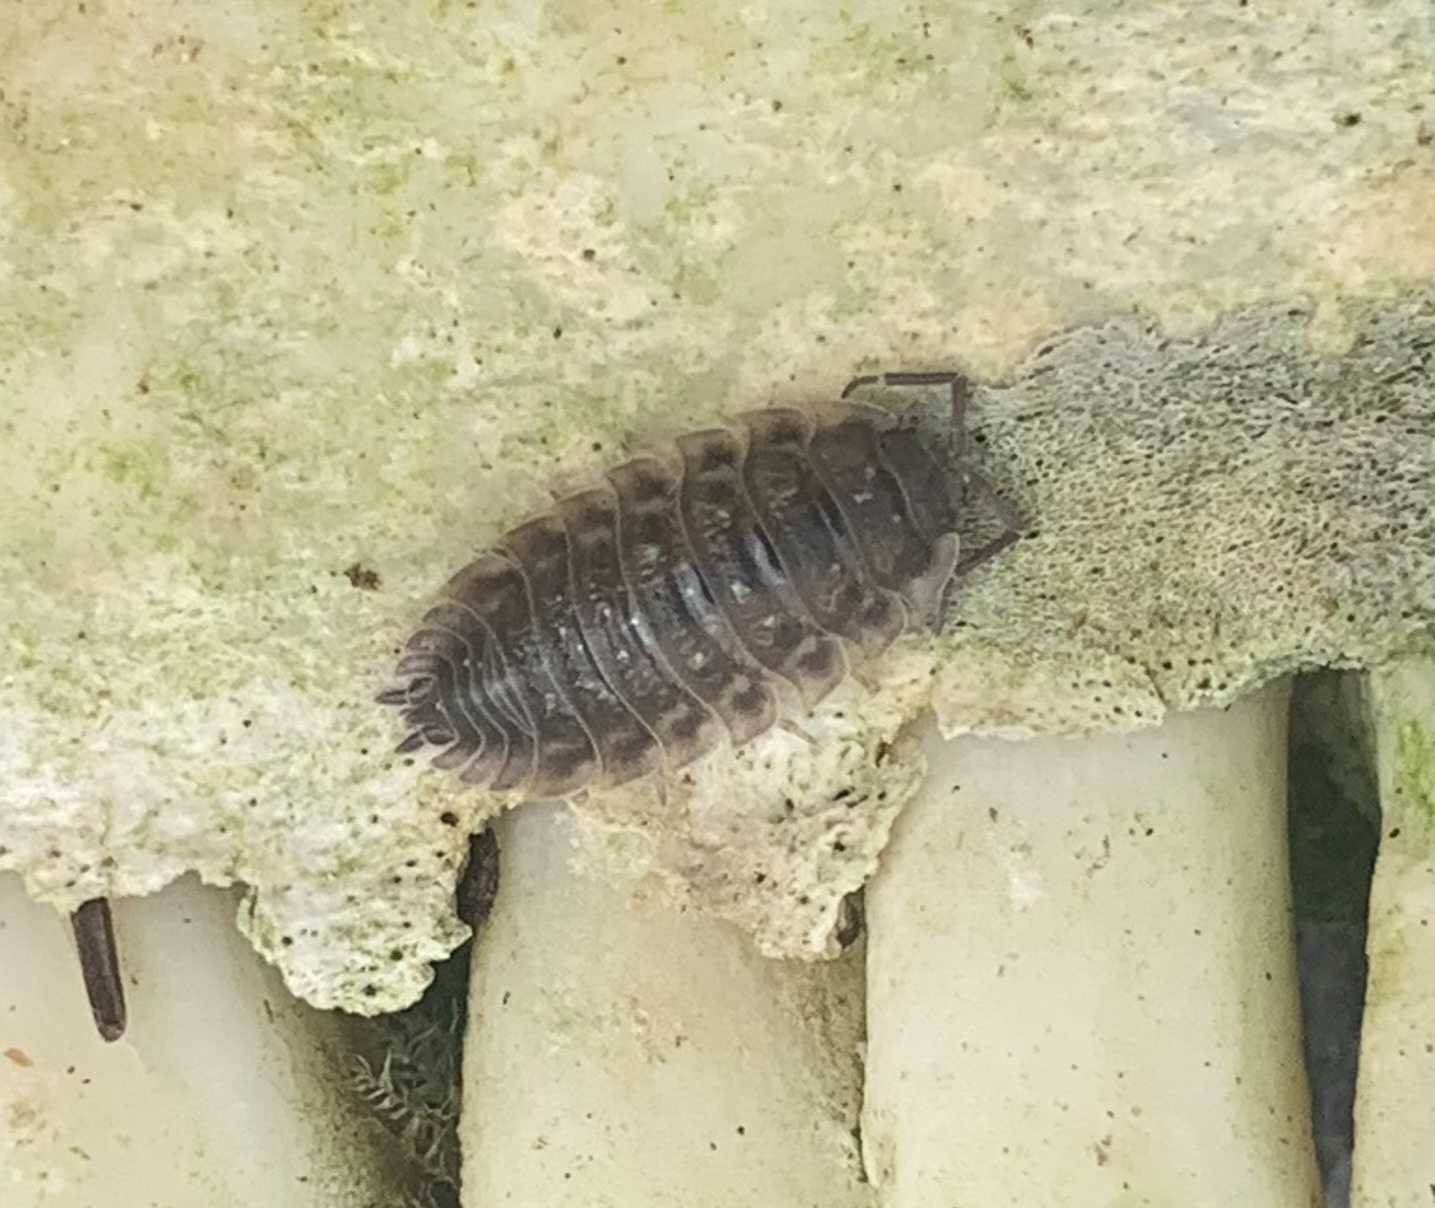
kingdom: Animalia
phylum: Arthropoda
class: Malacostraca
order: Isopoda
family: Oniscidae
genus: Oniscus
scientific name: Oniscus asellus
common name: Common shiny woodlouse
